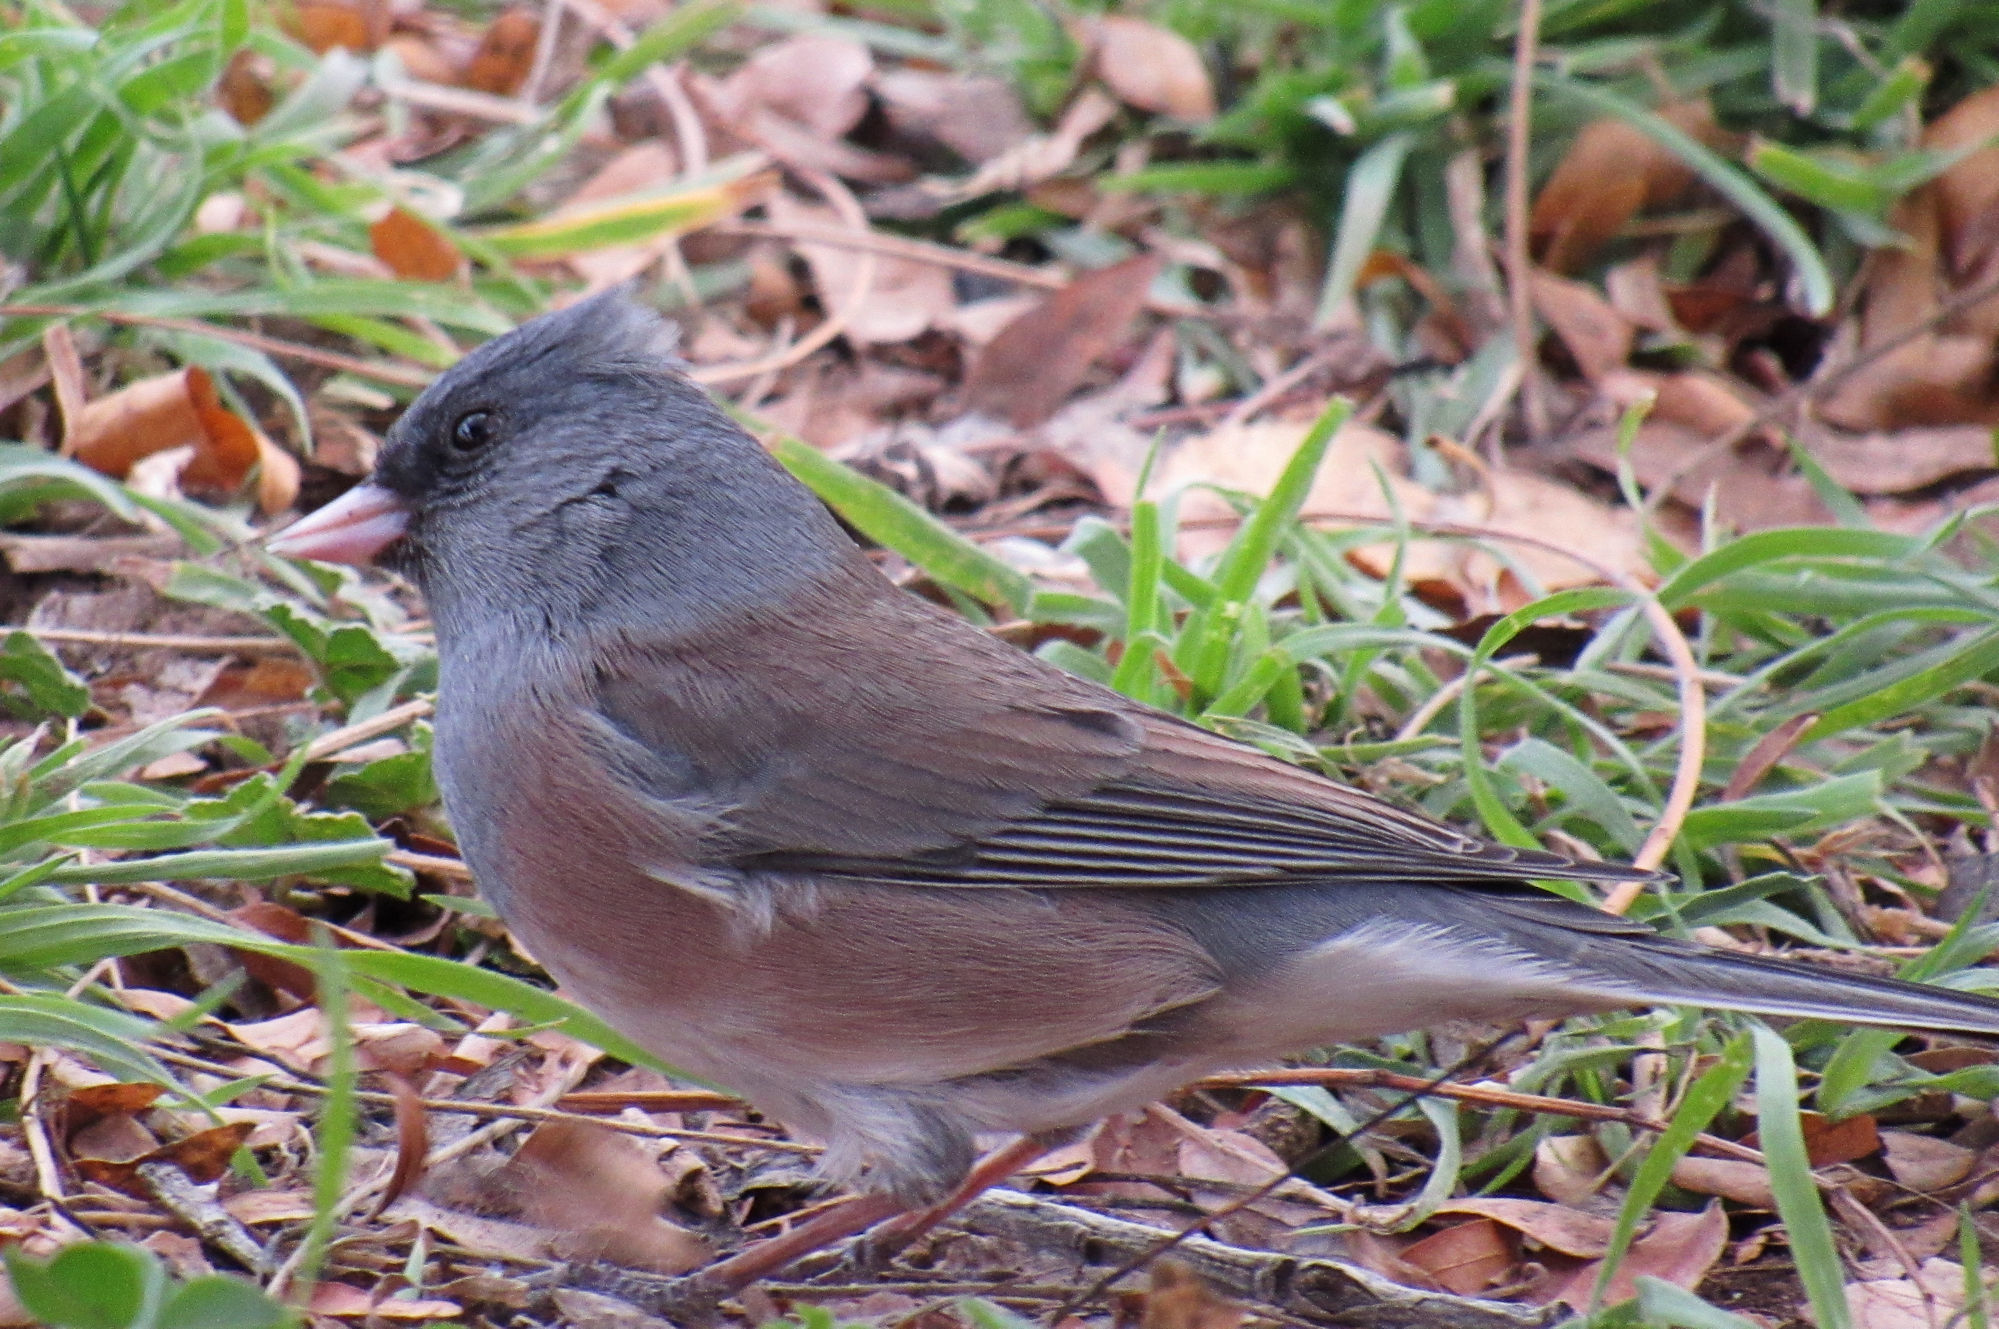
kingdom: Animalia
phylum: Chordata
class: Aves
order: Passeriformes
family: Passerellidae
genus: Junco
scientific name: Junco hyemalis
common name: Dark-eyed junco
